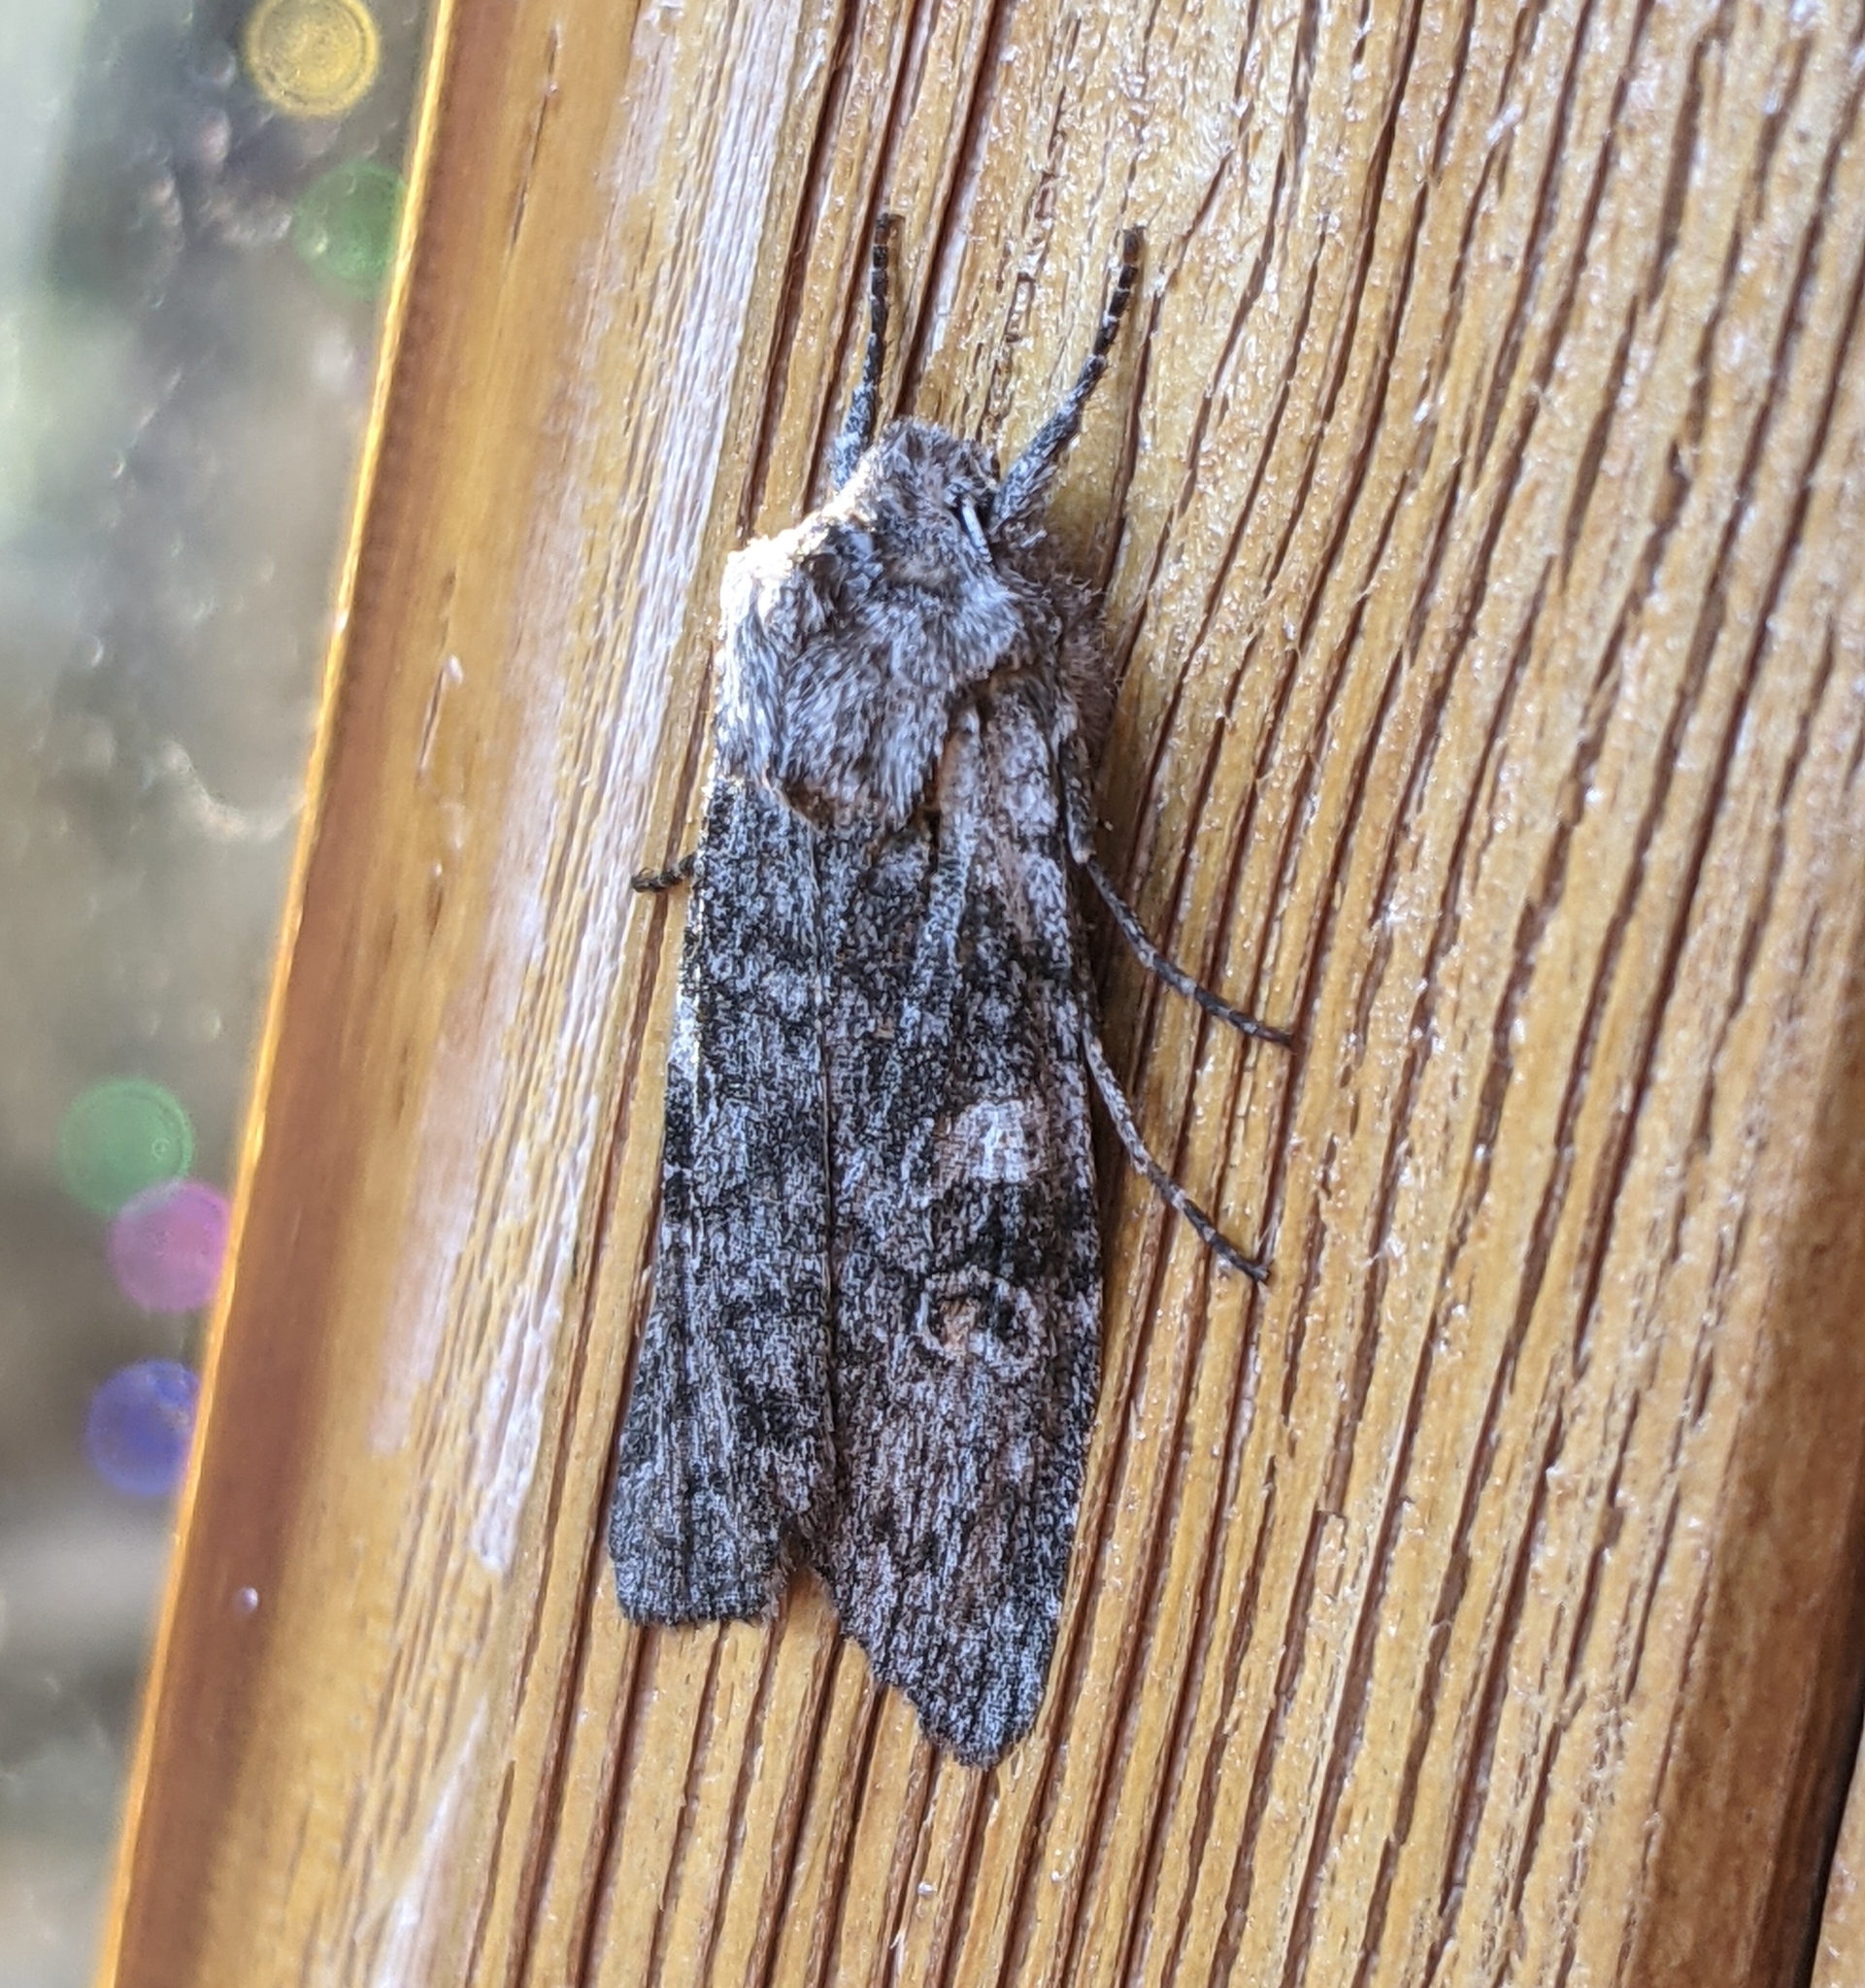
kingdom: Animalia
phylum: Arthropoda
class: Insecta
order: Lepidoptera
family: Noctuidae
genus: Lithophane
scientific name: Lithophane pertorrida
